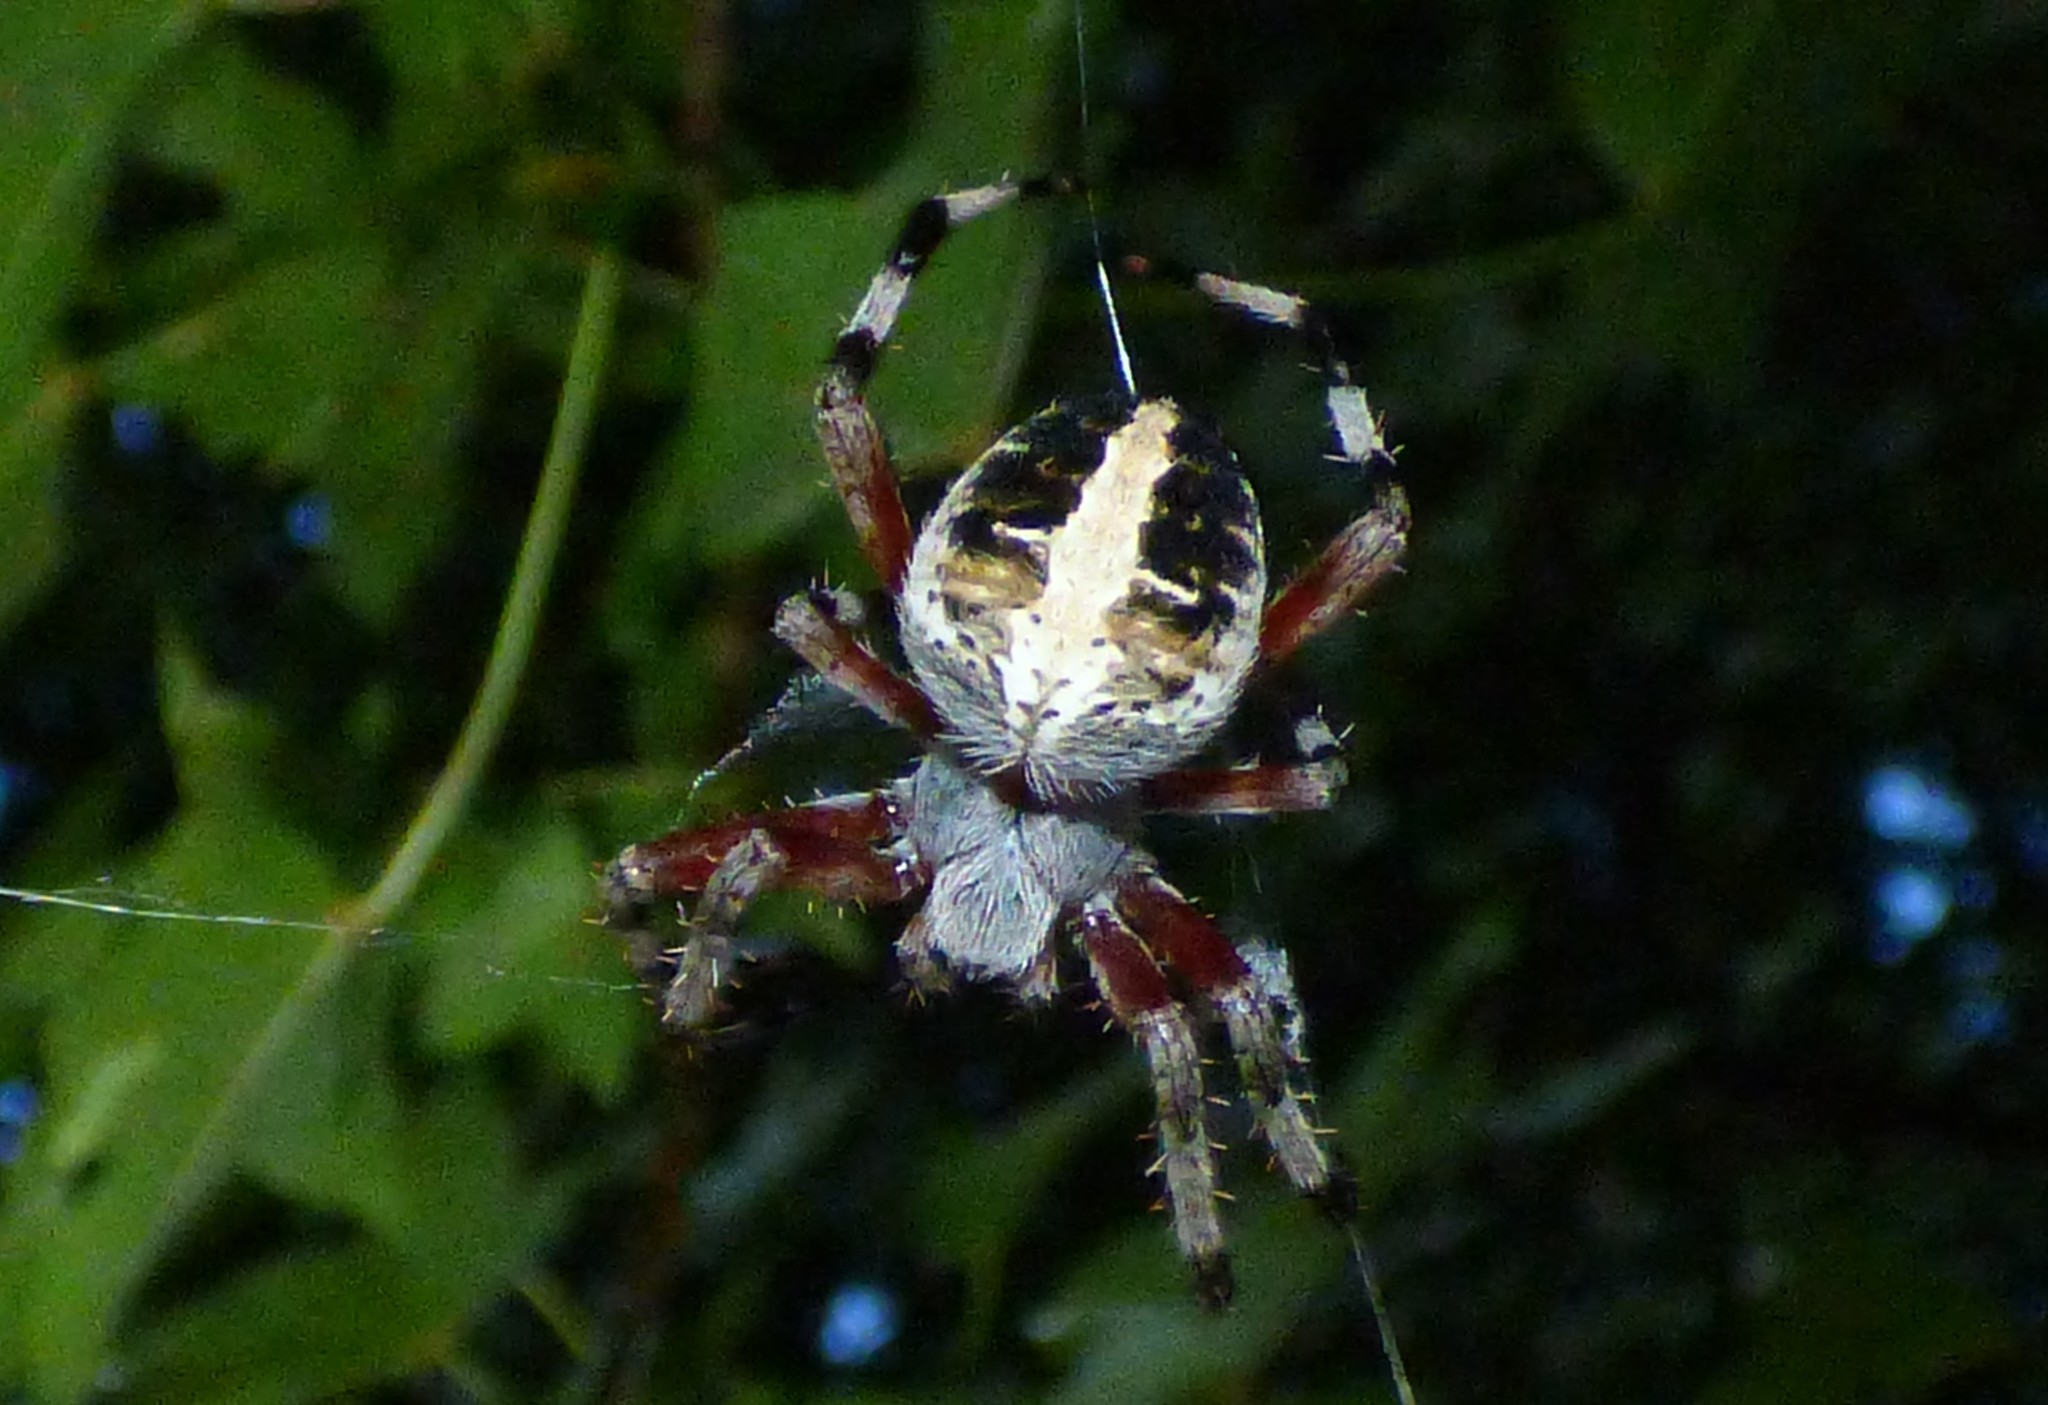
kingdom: Animalia
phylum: Arthropoda
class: Arachnida
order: Araneae
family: Araneidae
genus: Neoscona
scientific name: Neoscona domiciliorum
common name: Red-femured spotted orbweaver
